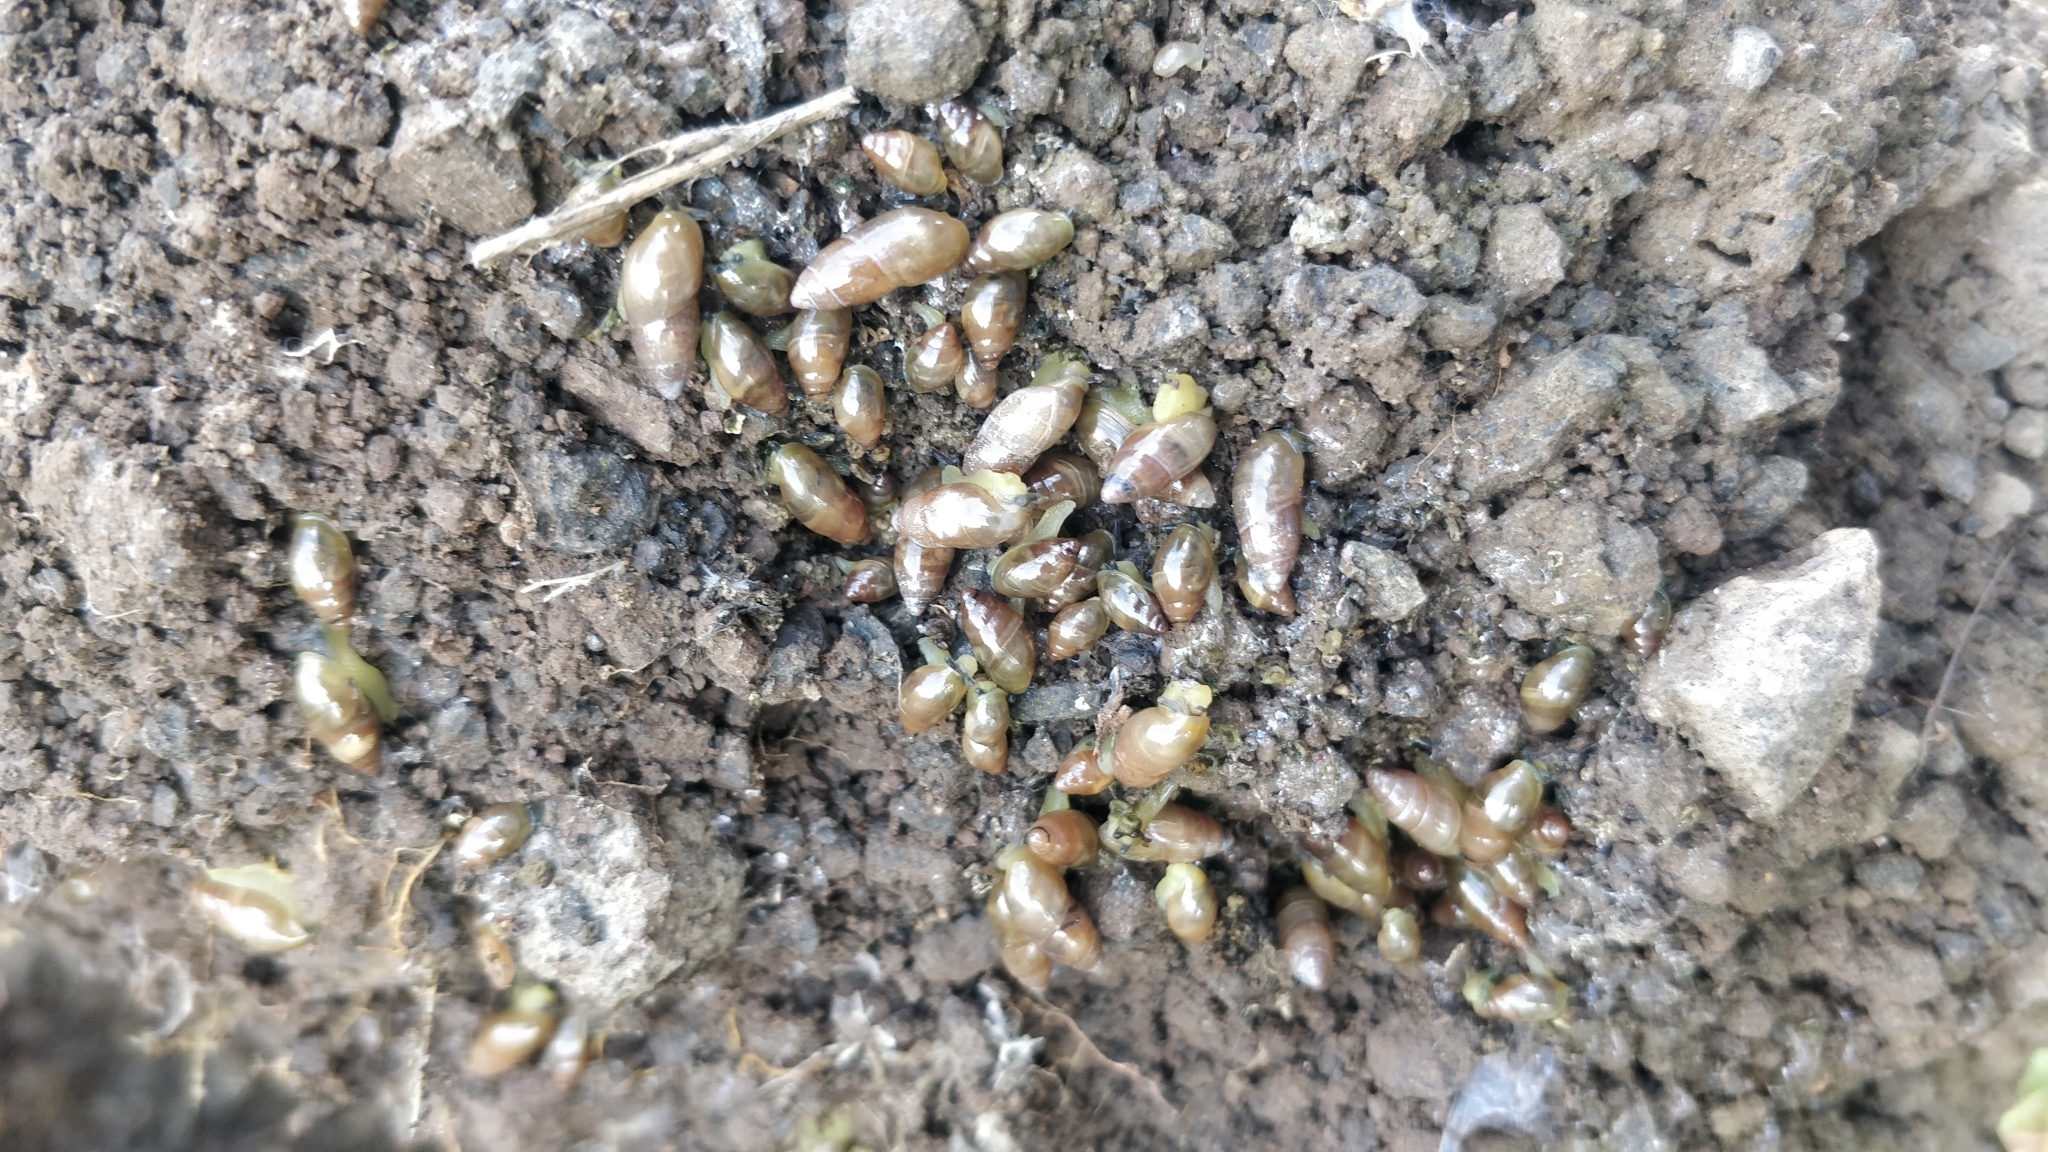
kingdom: Animalia
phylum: Mollusca
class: Gastropoda
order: Stylommatophora
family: Ferussaciidae
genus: Ferussacia
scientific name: Ferussacia folliculum
